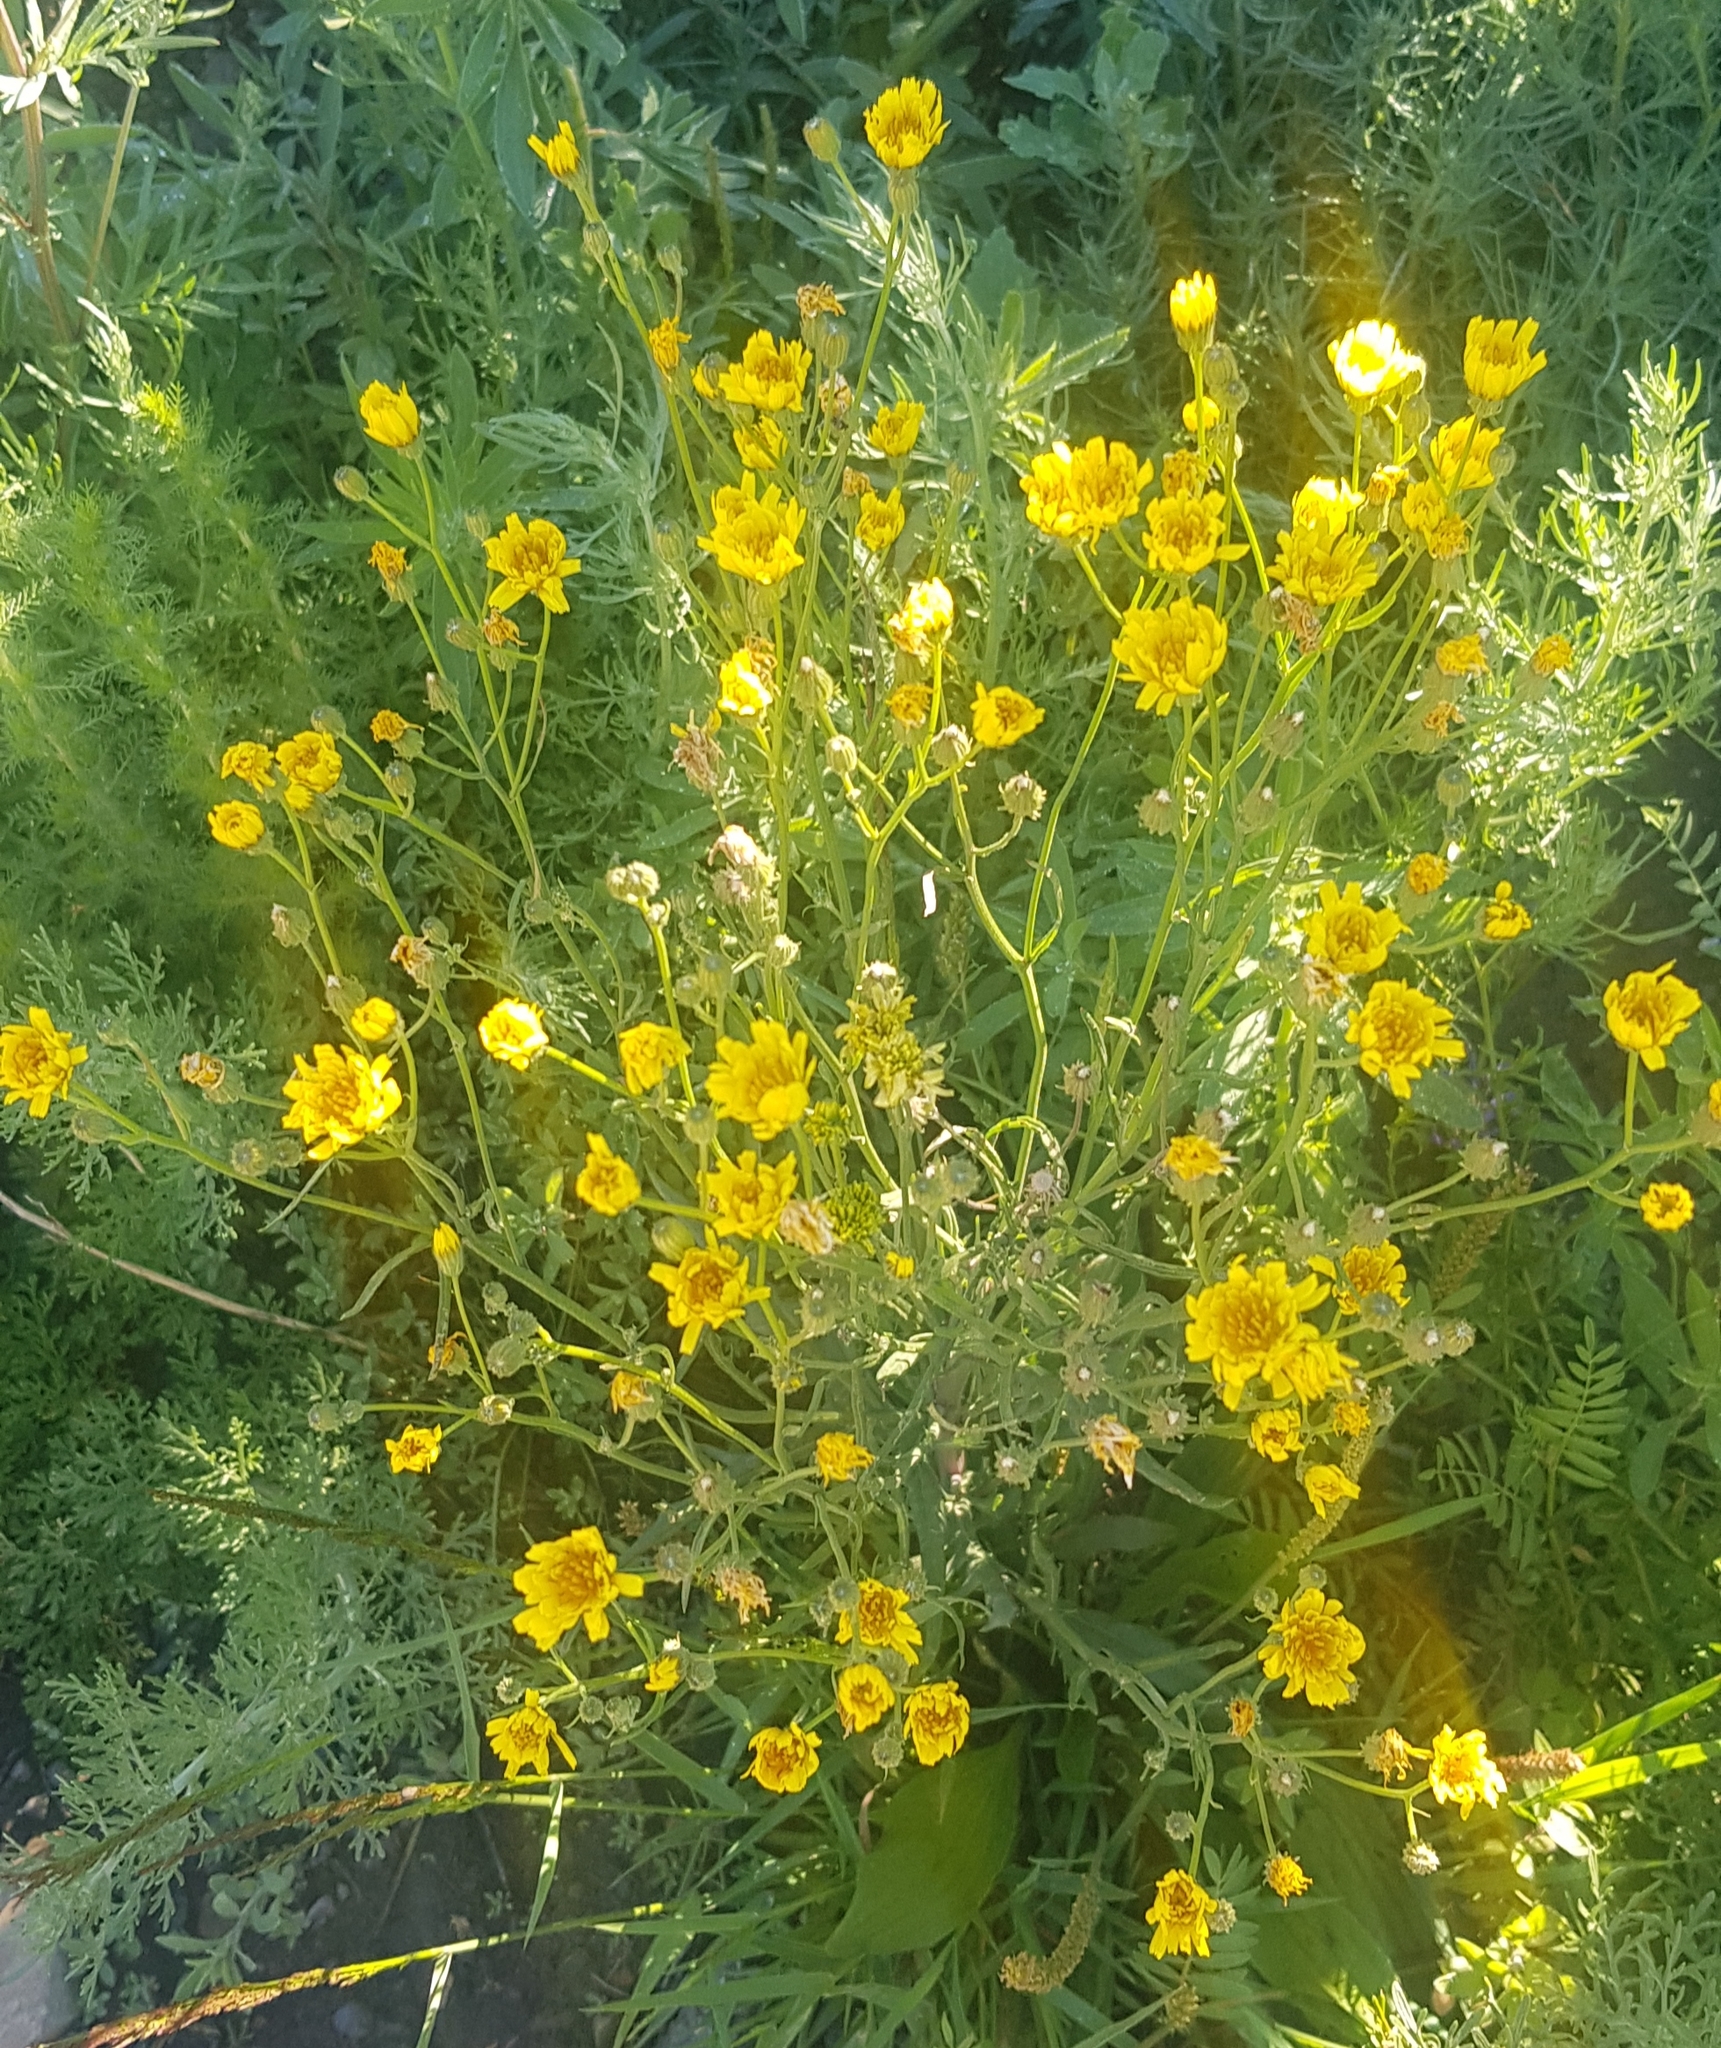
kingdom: Plantae
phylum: Tracheophyta
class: Magnoliopsida
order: Asterales
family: Asteraceae
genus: Crepis
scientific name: Crepis tectorum
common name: Narrow-leaved hawk's-beard
